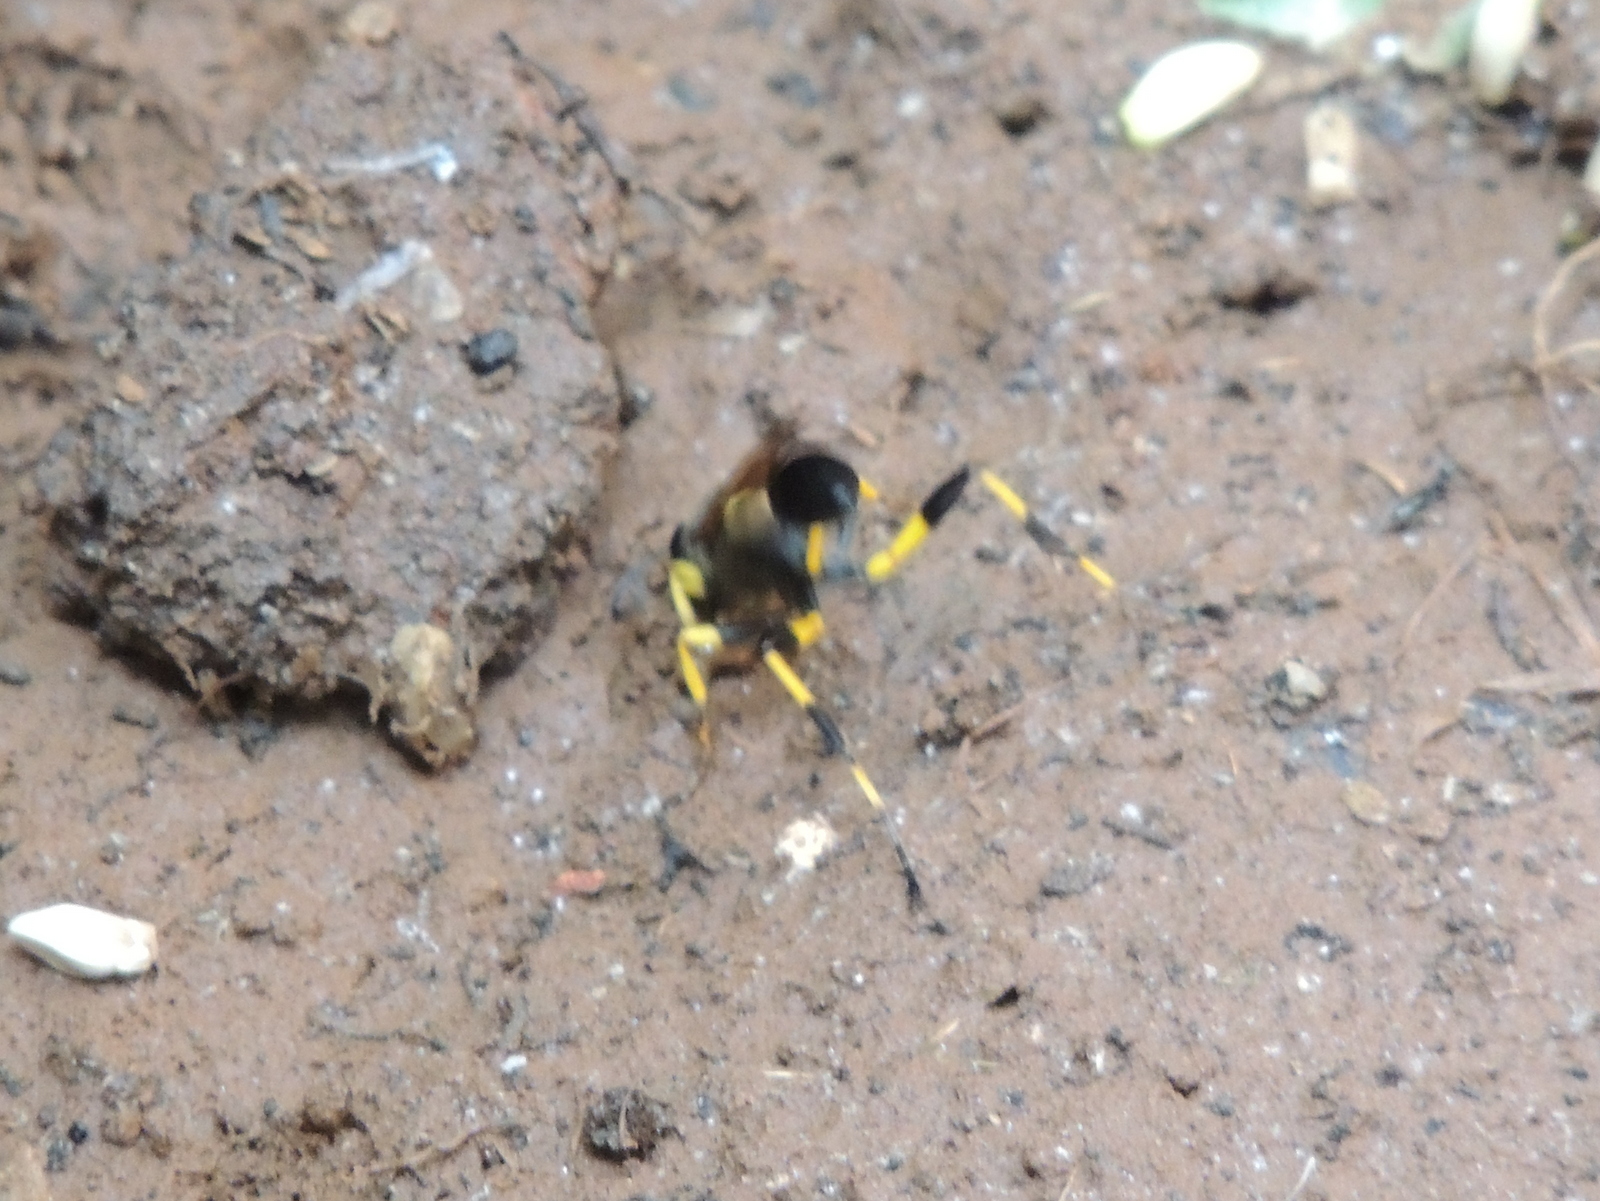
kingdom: Animalia
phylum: Arthropoda
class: Insecta
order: Hymenoptera
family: Sphecidae
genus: Sceliphron
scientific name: Sceliphron madraspatanum
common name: Mud dauber
